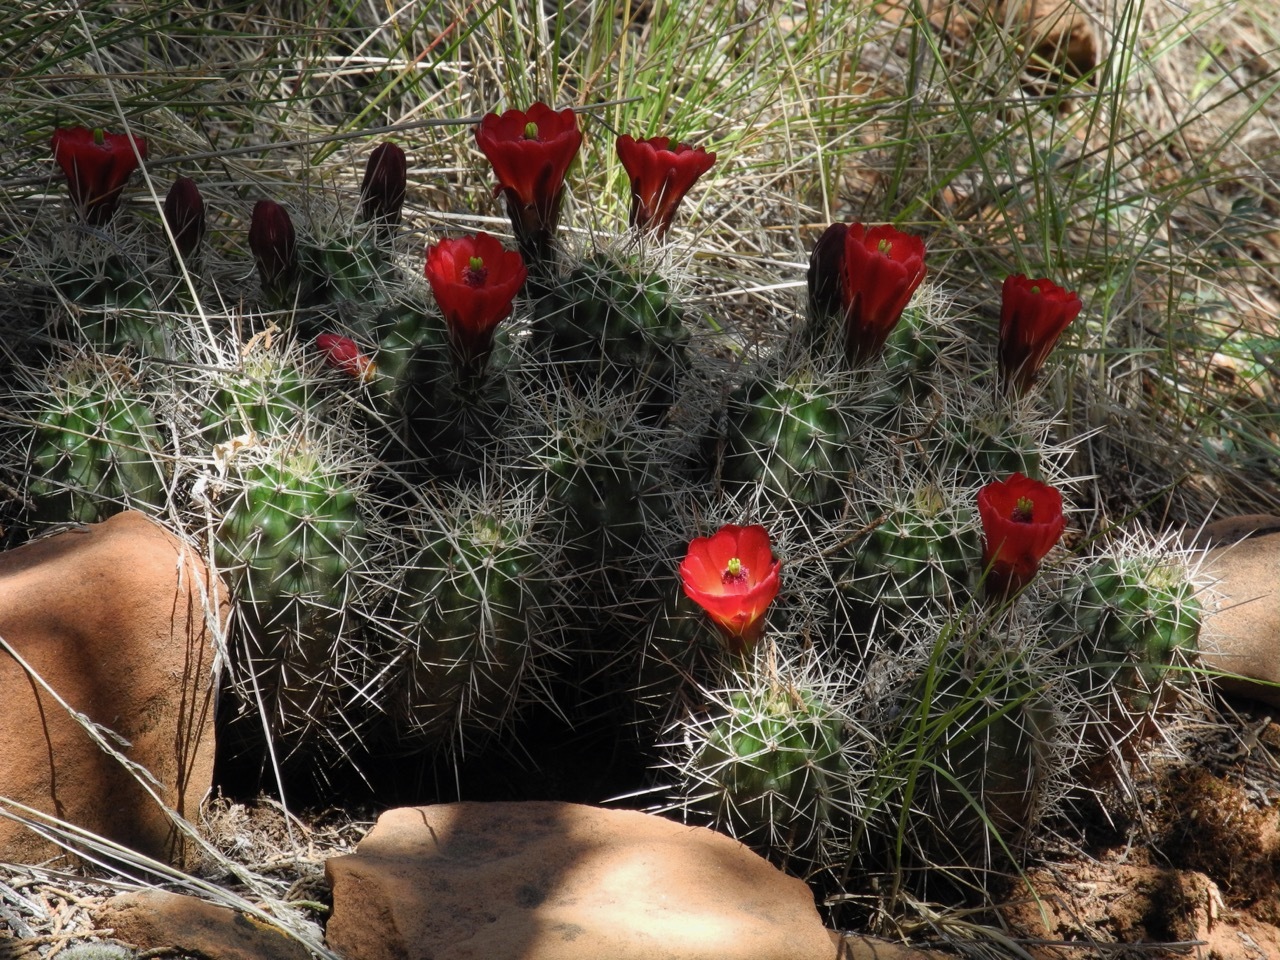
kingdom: Plantae
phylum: Tracheophyta
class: Magnoliopsida
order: Caryophyllales
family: Cactaceae
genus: Echinocereus
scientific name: Echinocereus triglochidiatus
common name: Claretcup hedgehog
